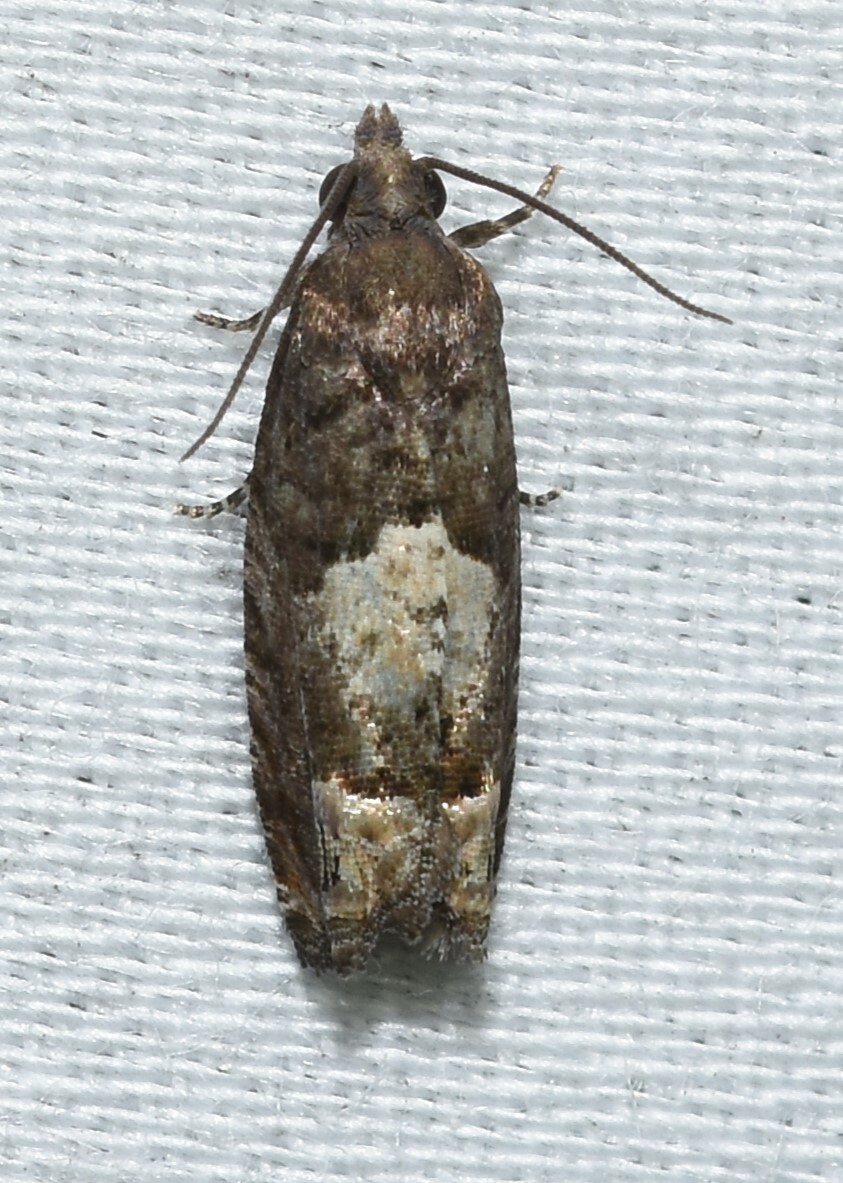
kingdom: Animalia
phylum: Arthropoda
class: Insecta
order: Lepidoptera
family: Tortricidae
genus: Eucosma
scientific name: Eucosma parmatana
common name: Aster eucosma moth
